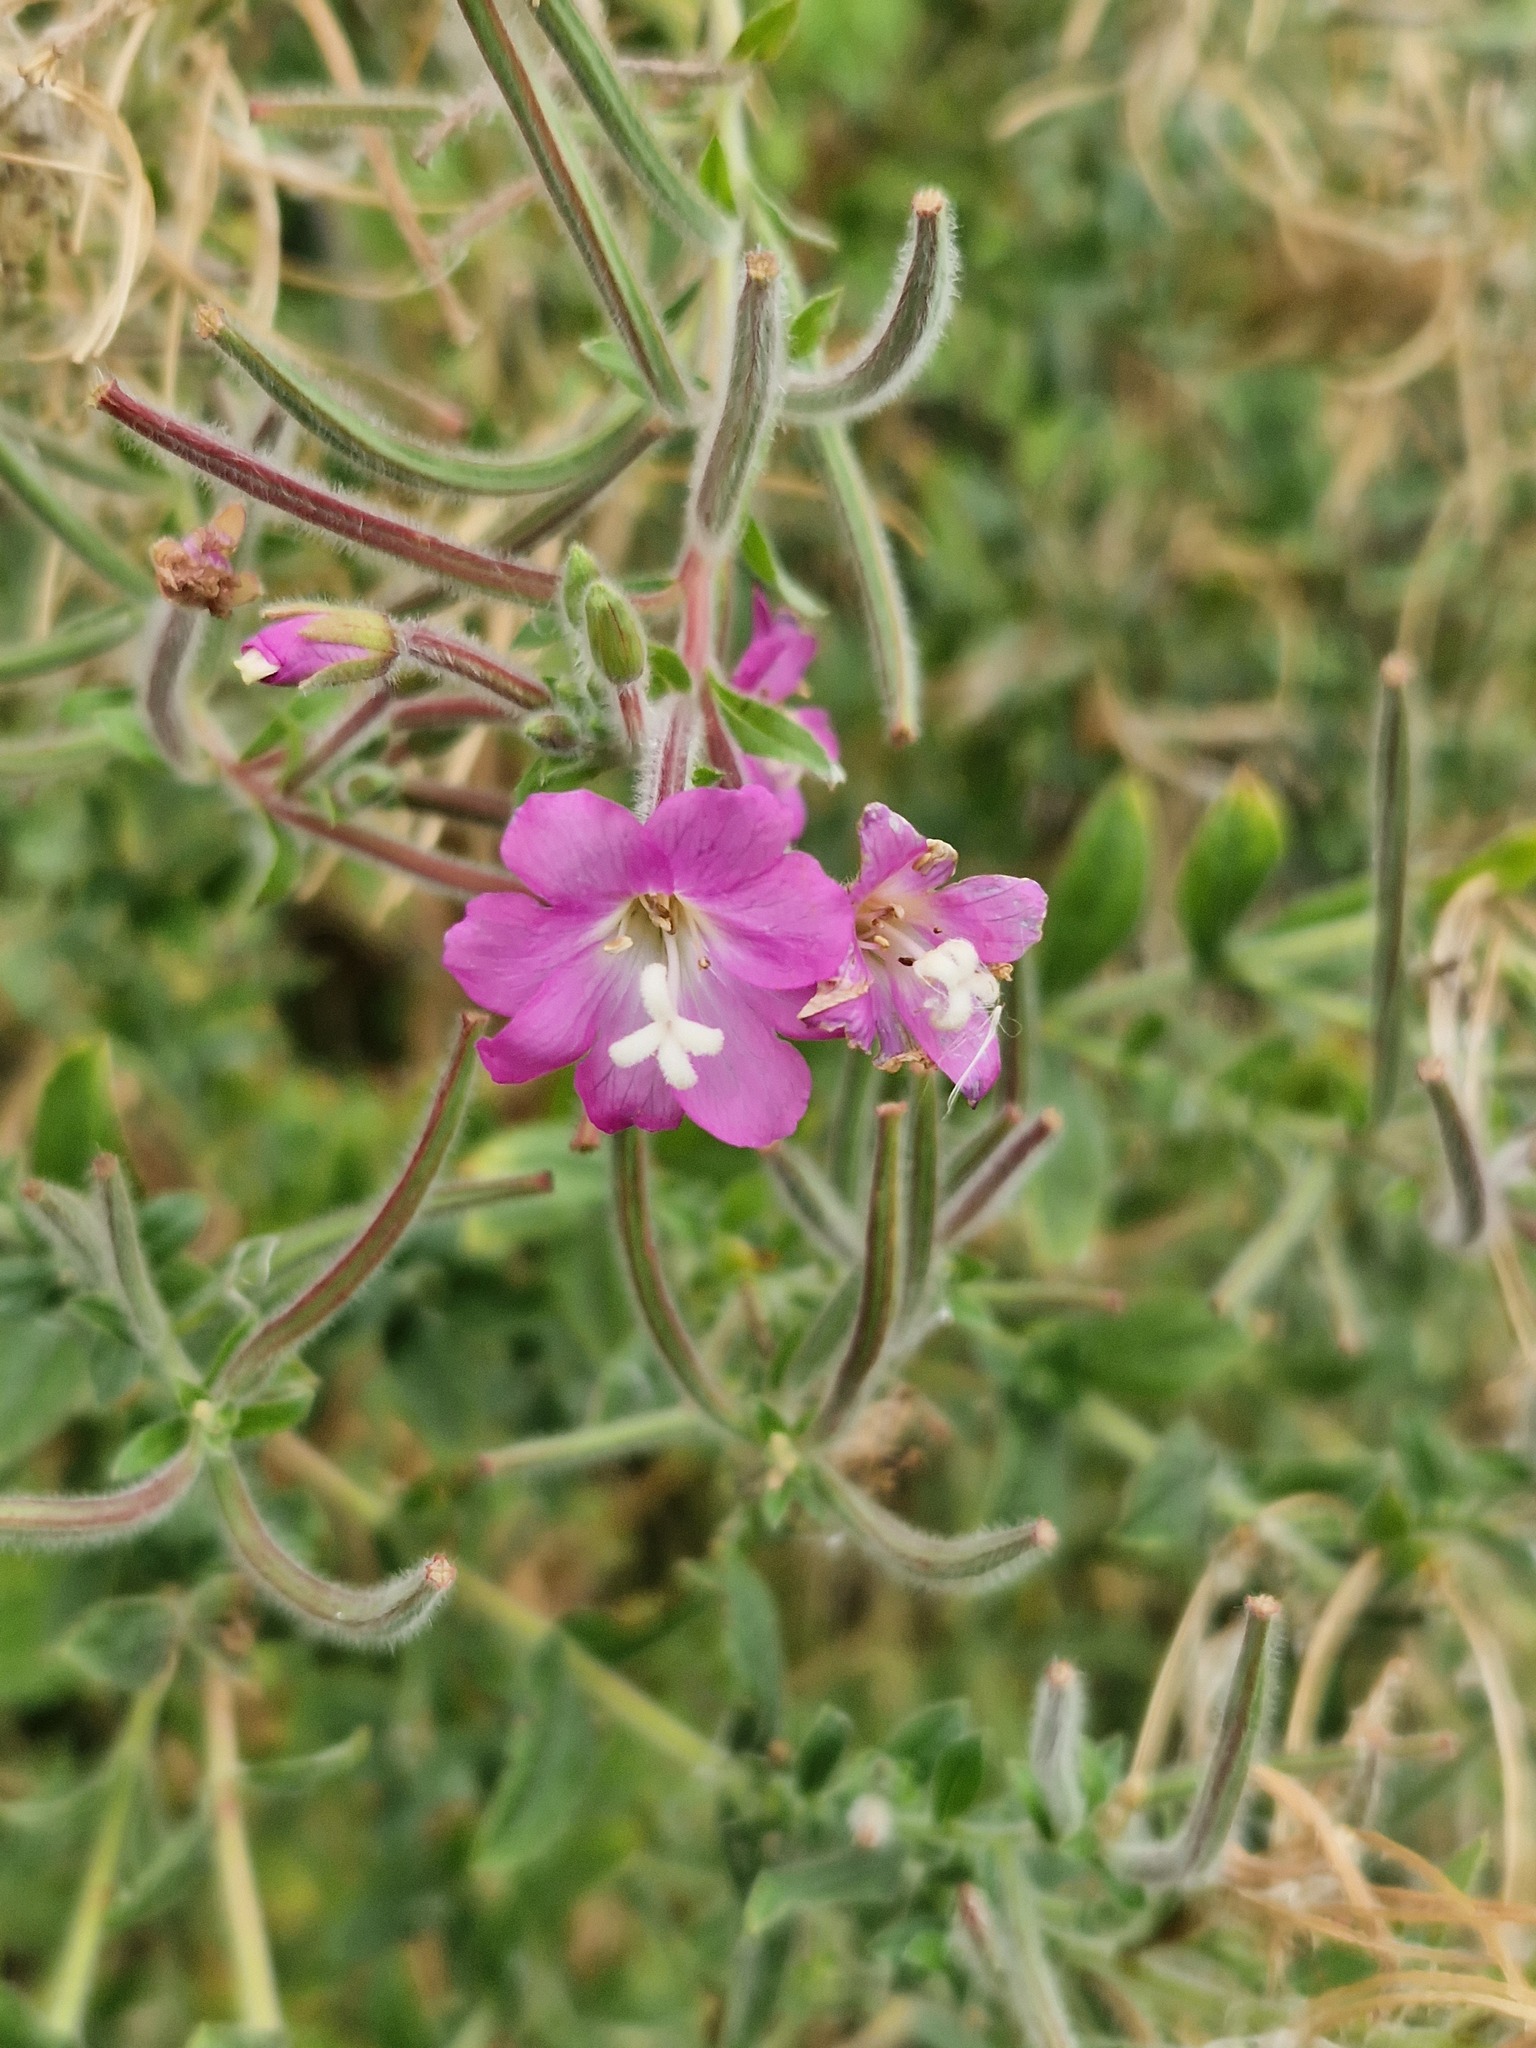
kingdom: Plantae
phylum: Tracheophyta
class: Magnoliopsida
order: Myrtales
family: Onagraceae
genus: Epilobium
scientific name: Epilobium hirsutum
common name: Great willowherb
